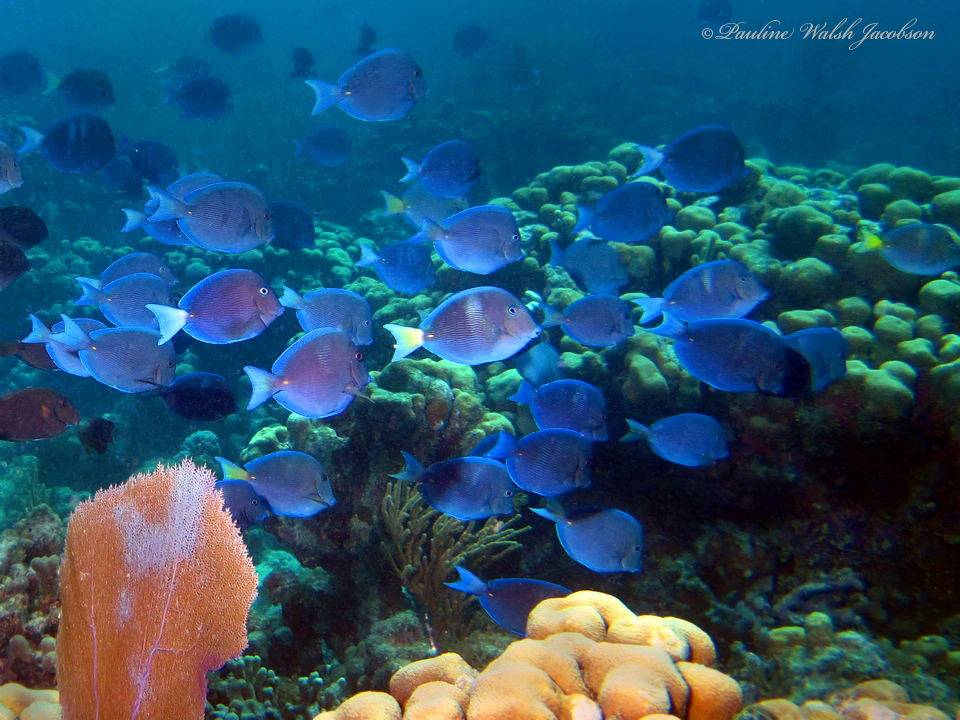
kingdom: Animalia
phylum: Chordata
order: Perciformes
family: Acanthuridae
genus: Acanthurus
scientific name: Acanthurus coeruleus
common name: Blue tang
